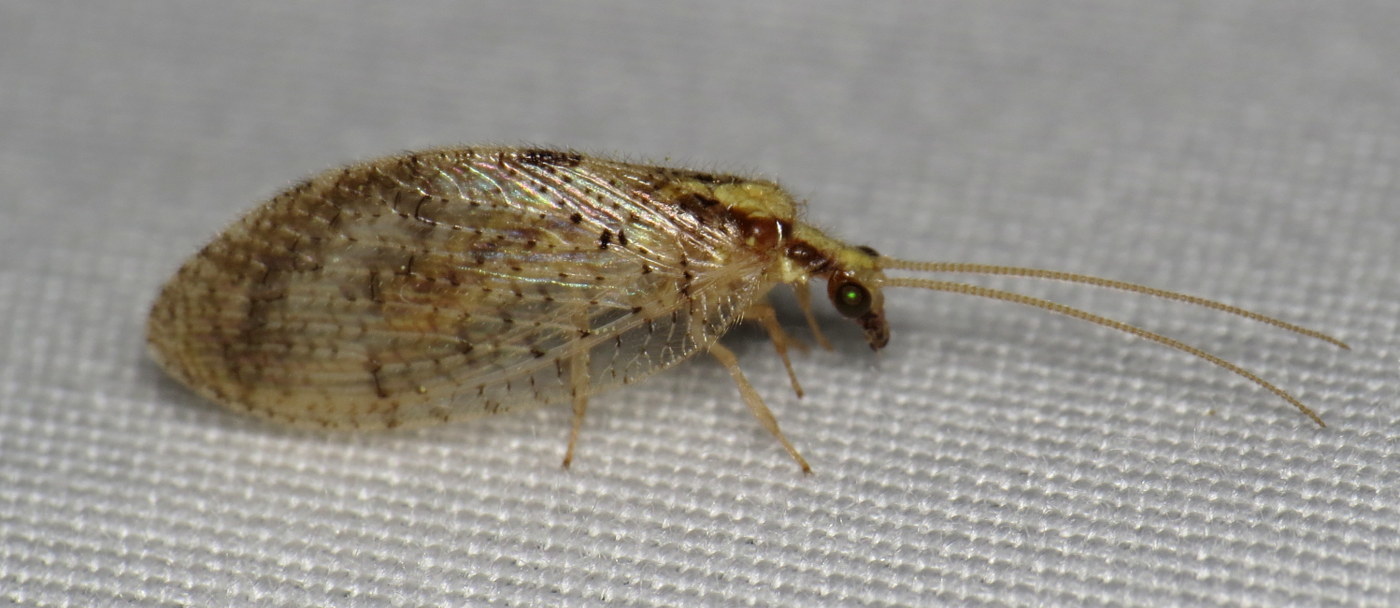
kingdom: Animalia
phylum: Arthropoda
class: Insecta
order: Neuroptera
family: Hemerobiidae
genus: Hemerobius
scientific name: Hemerobius humulinus
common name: Humulin brown lacewing
